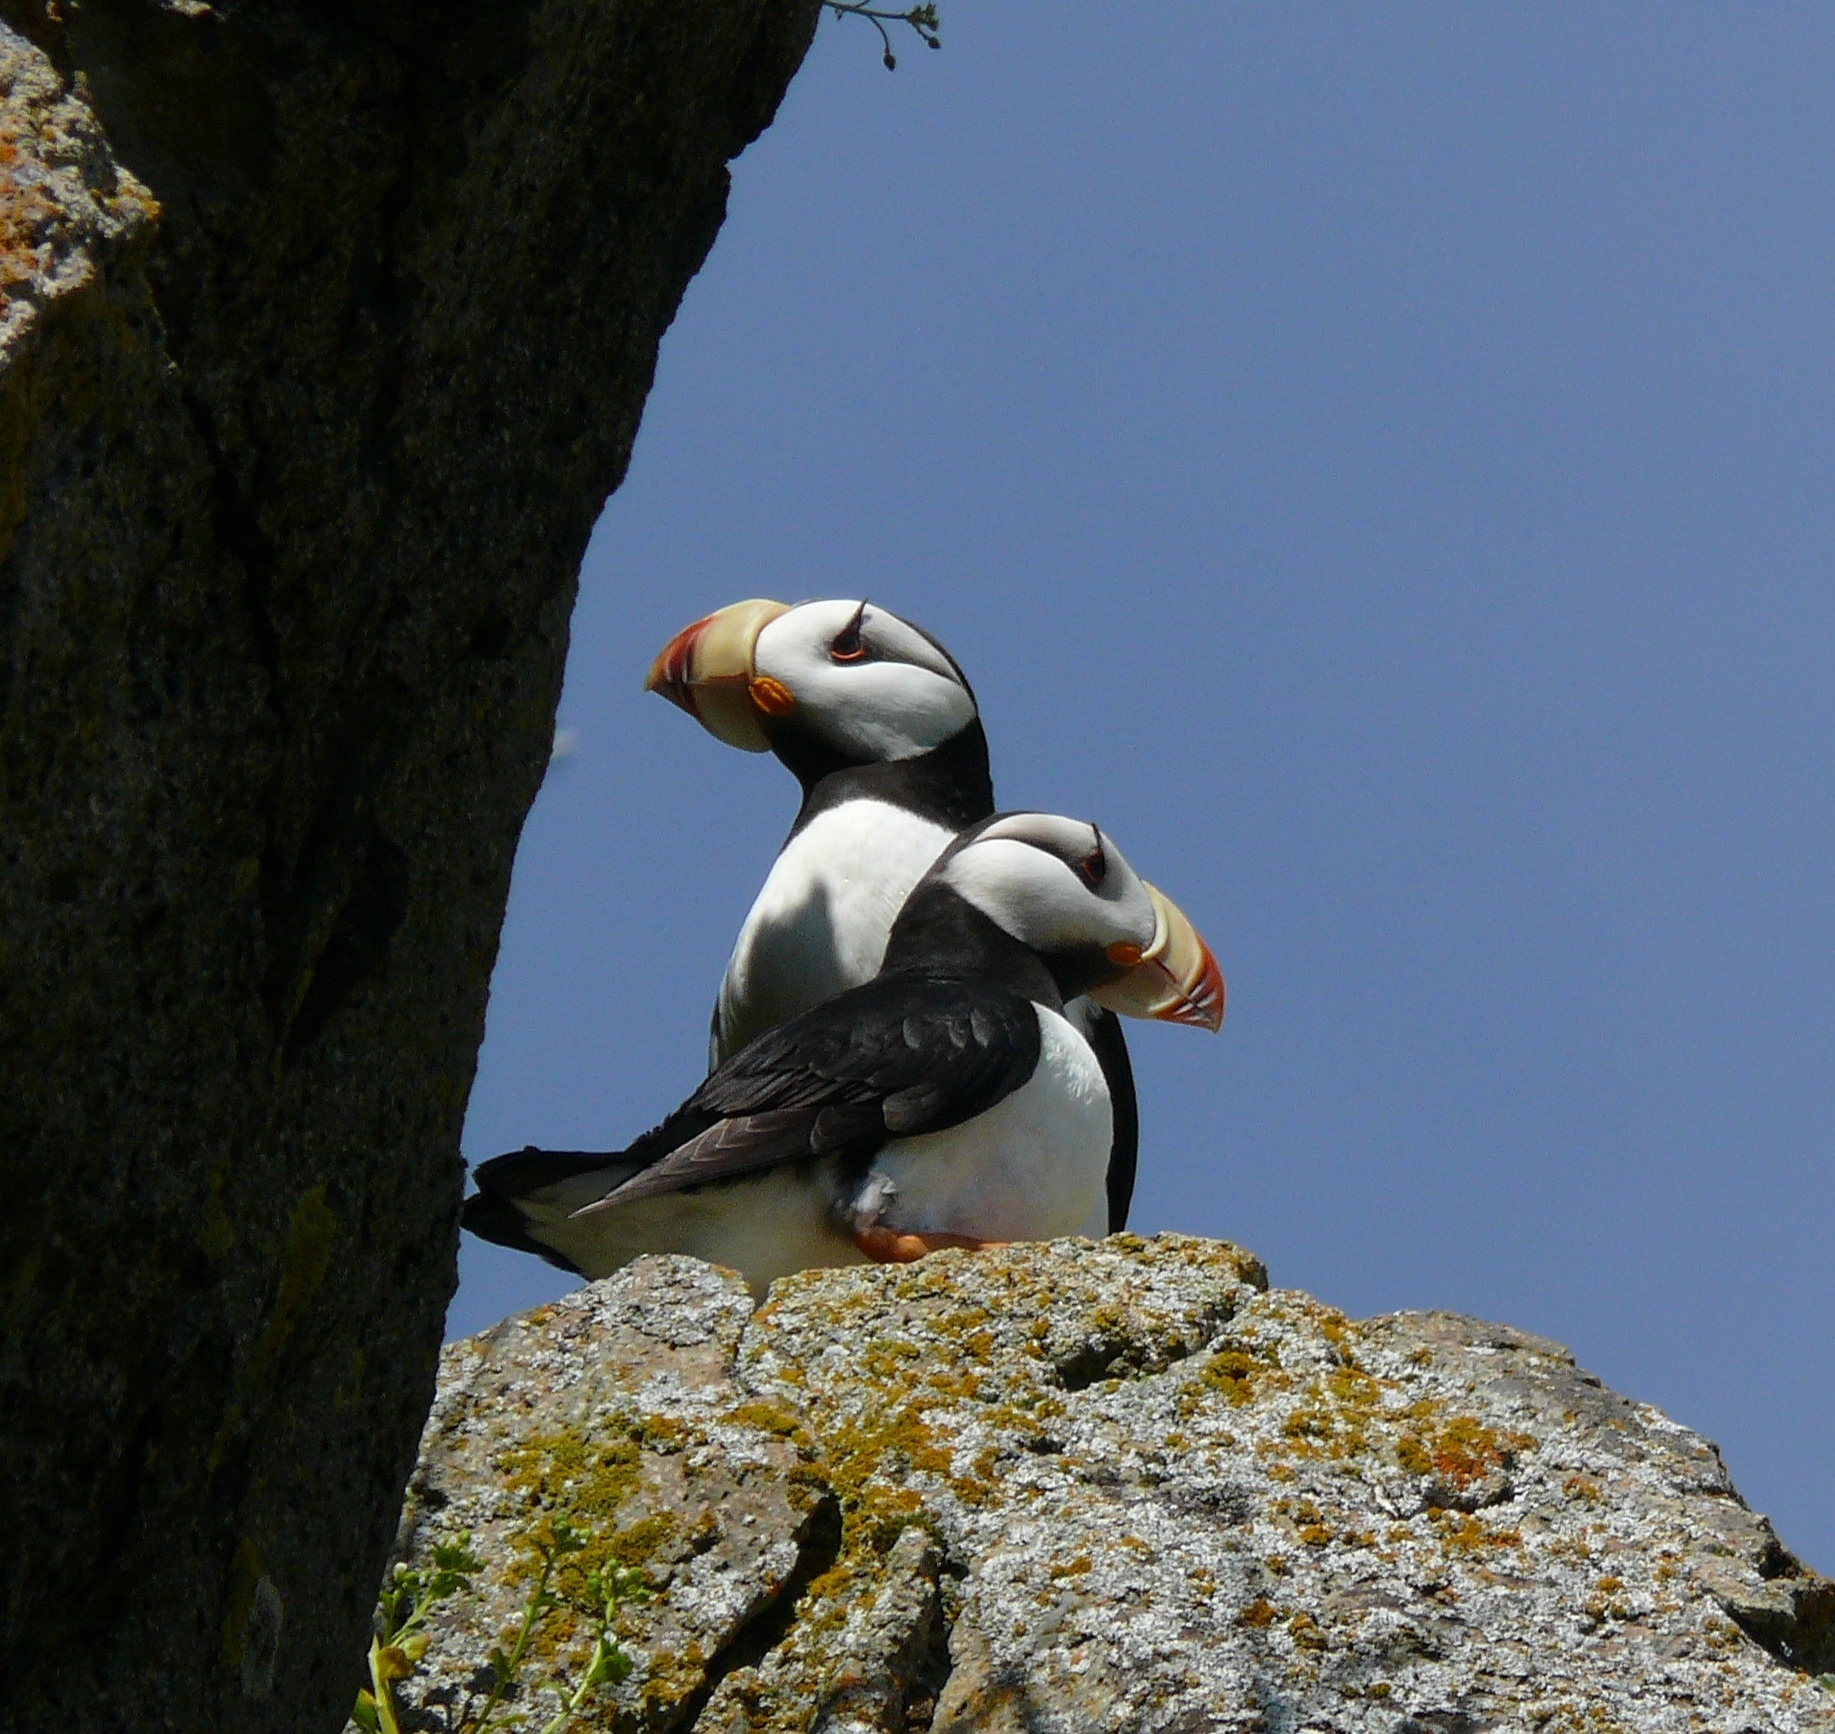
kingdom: Animalia
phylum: Chordata
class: Aves
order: Charadriiformes
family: Alcidae
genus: Fratercula
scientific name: Fratercula corniculata
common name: Horned puffin
